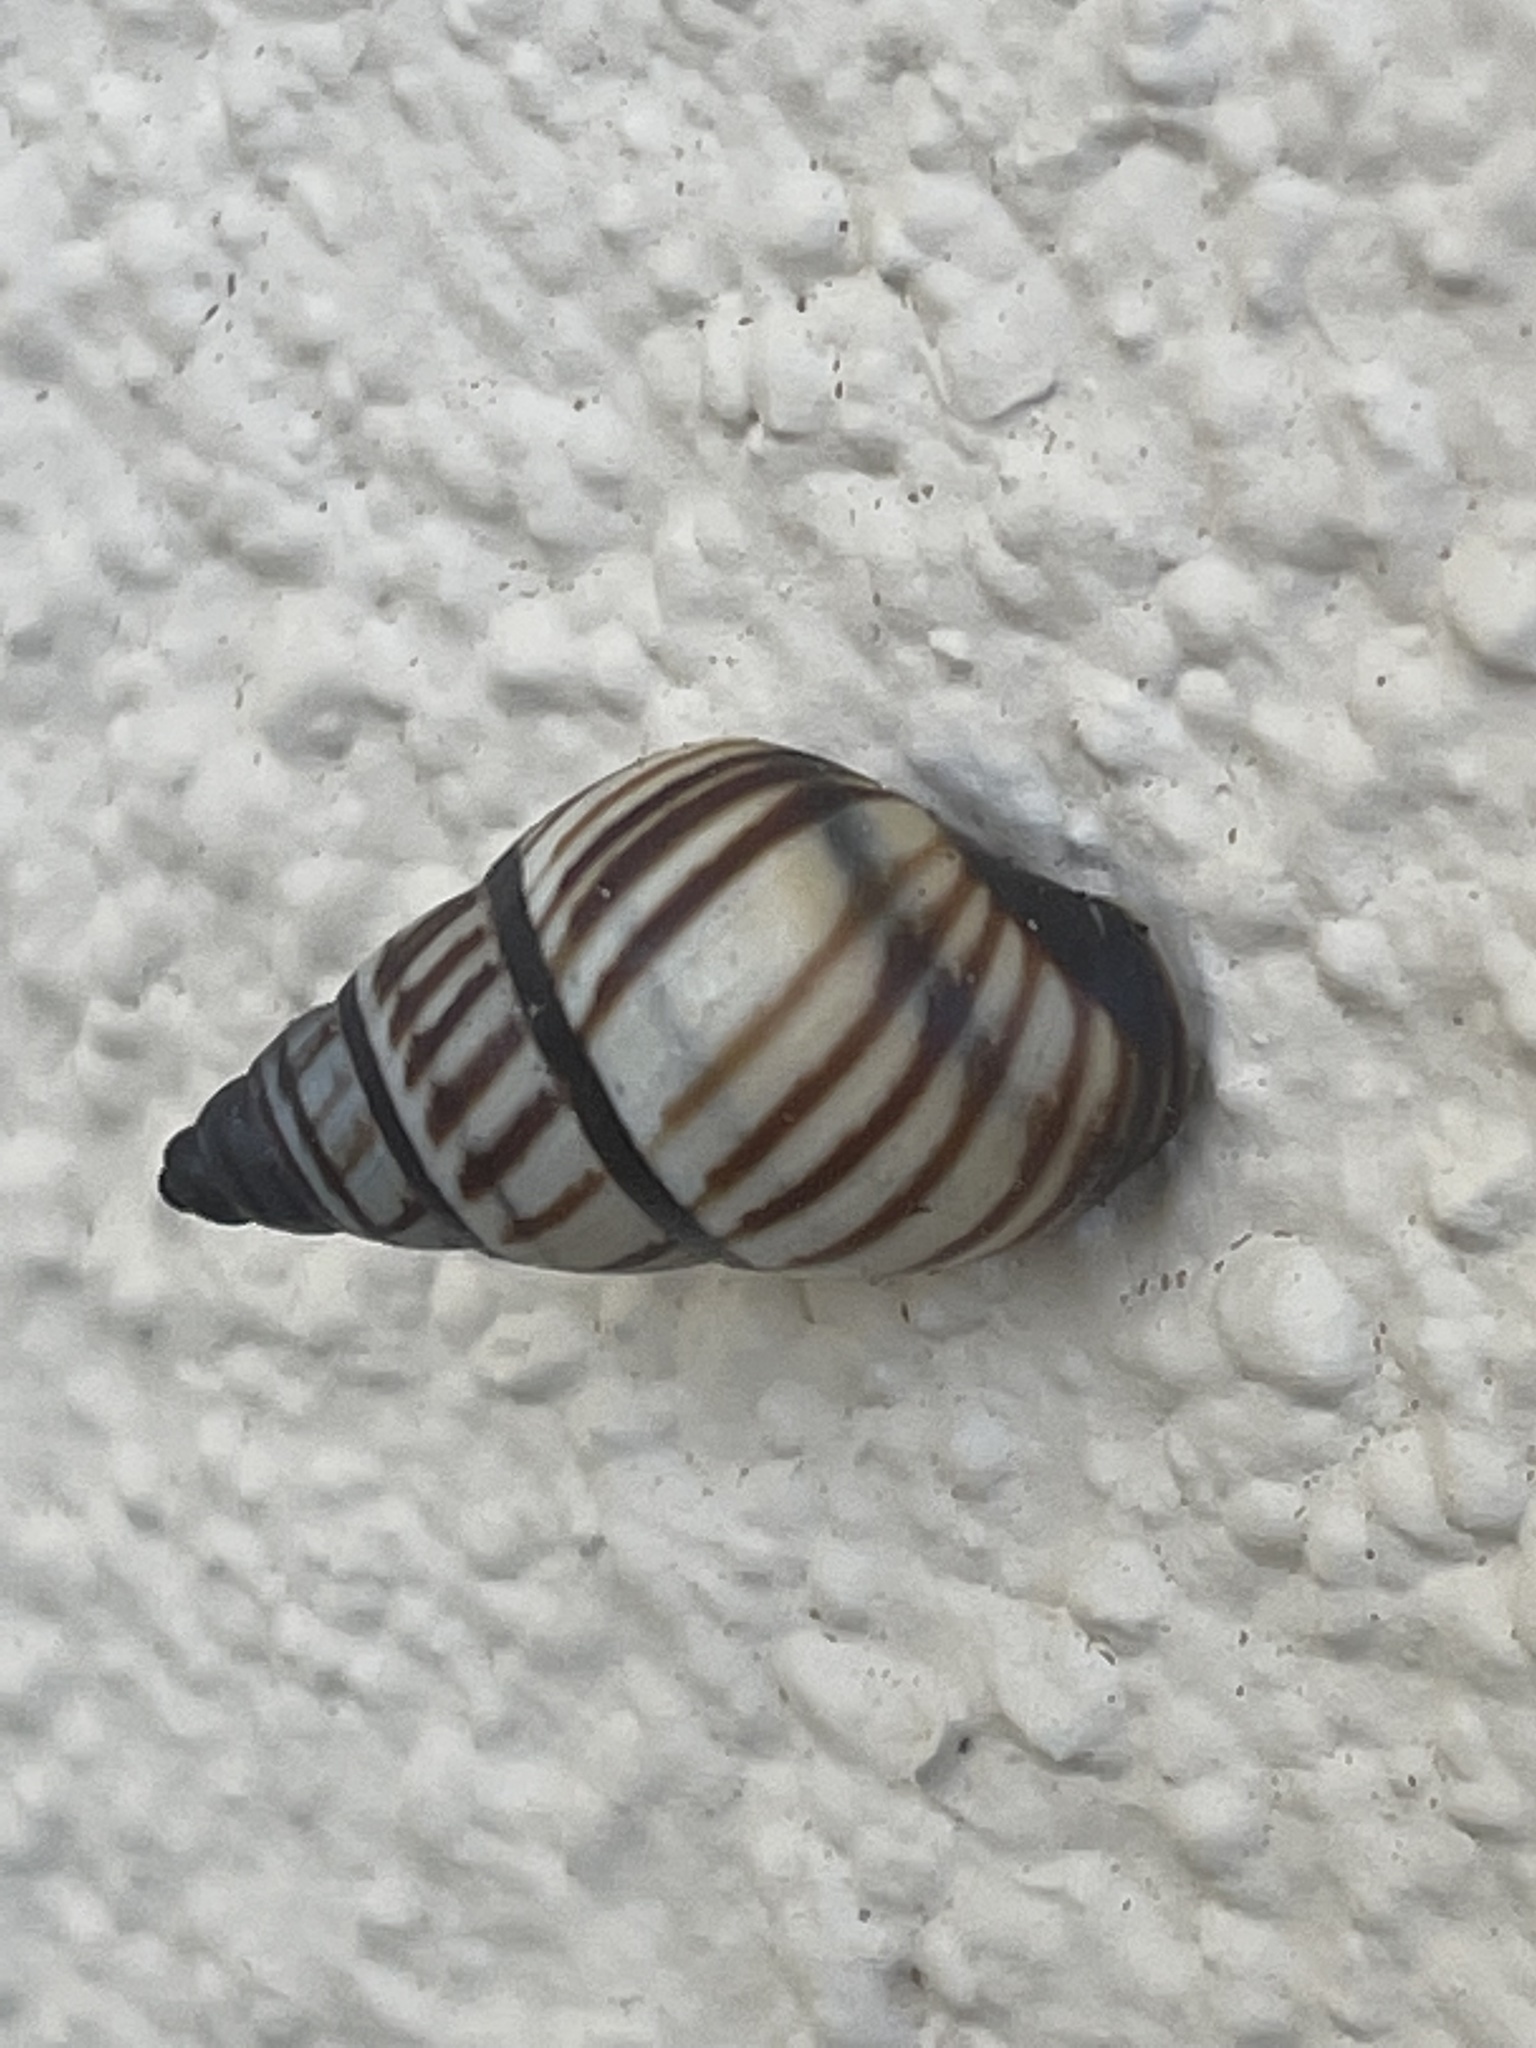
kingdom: Animalia
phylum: Mollusca
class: Gastropoda
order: Stylommatophora
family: Bulimulidae
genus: Drymaeus
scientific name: Drymaeus
